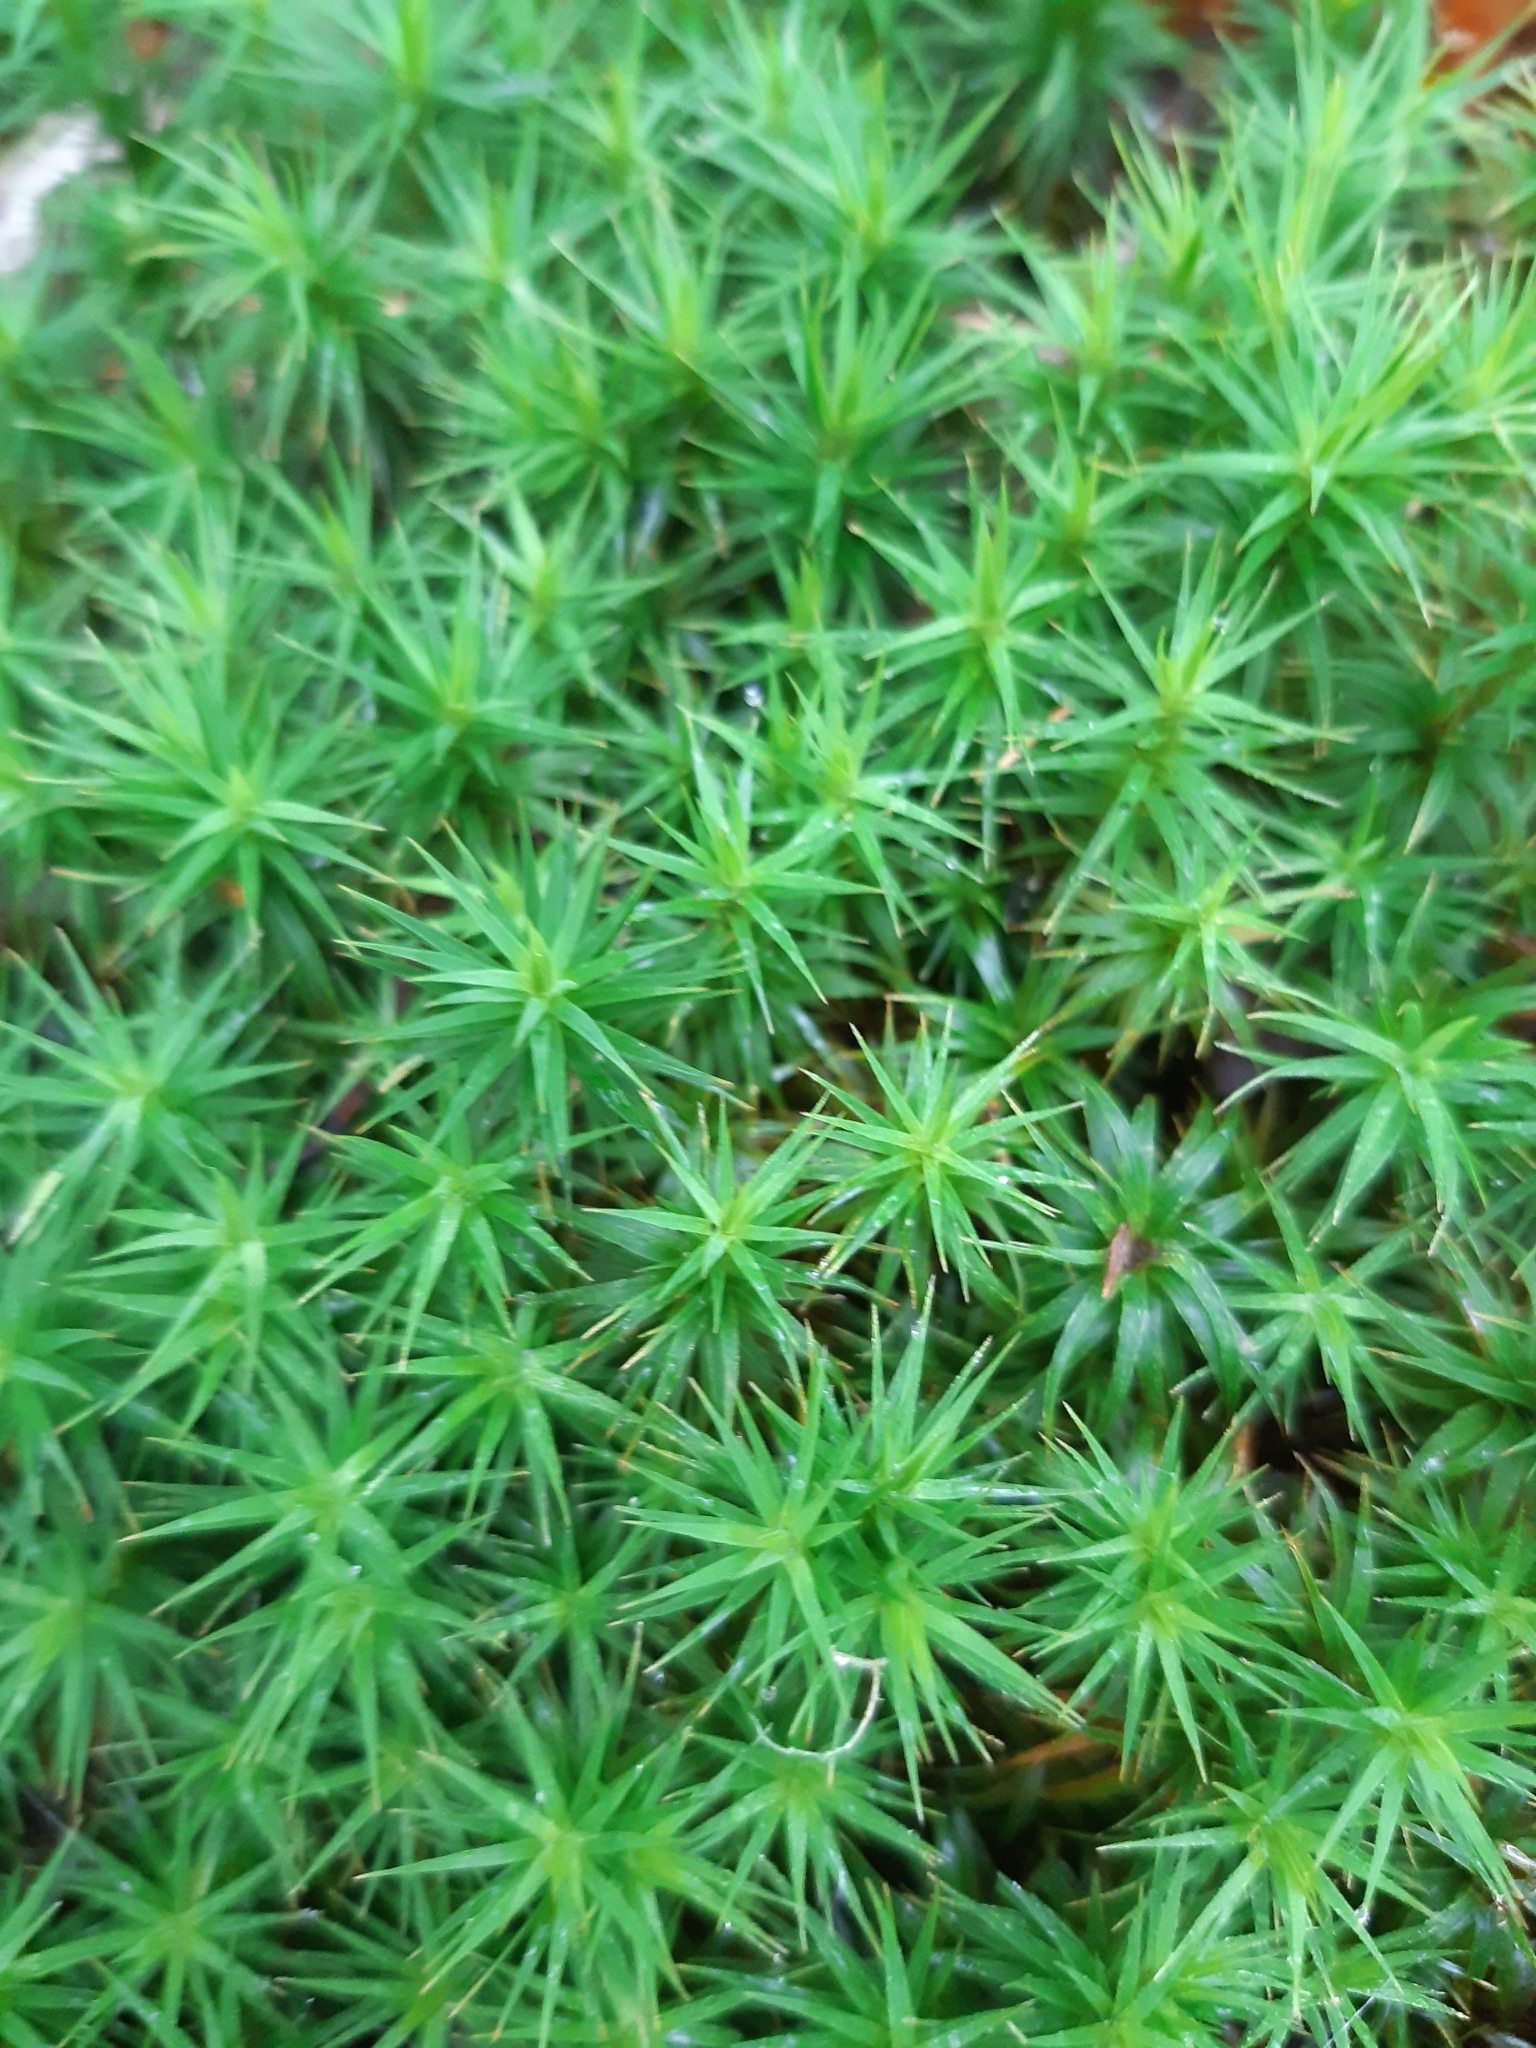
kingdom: Plantae
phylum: Bryophyta
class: Polytrichopsida
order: Polytrichales
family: Polytrichaceae
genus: Polytrichum
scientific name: Polytrichum formosum
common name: Bank haircap moss
